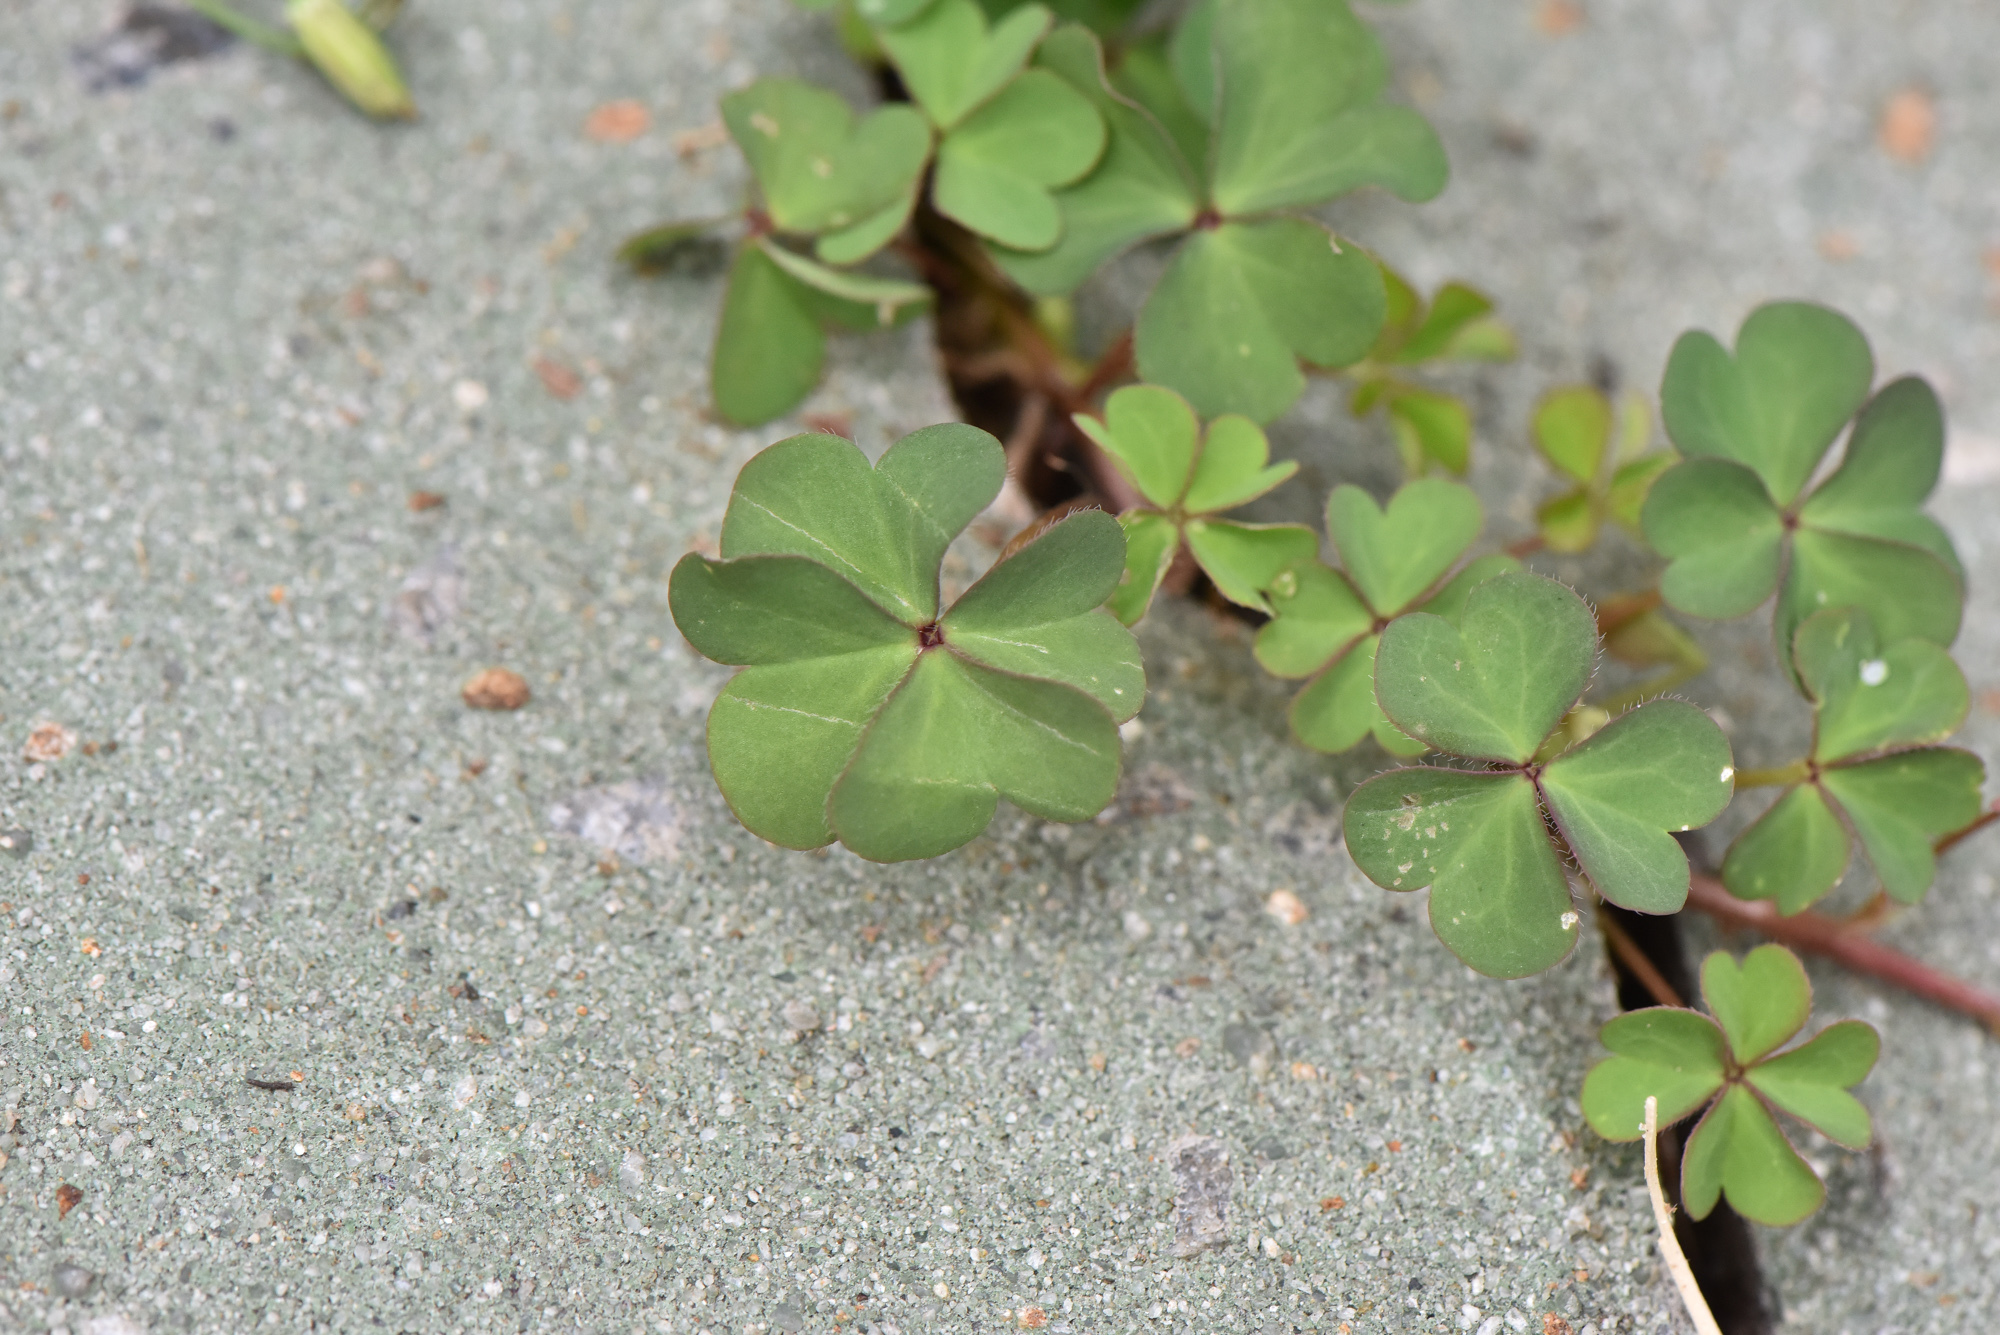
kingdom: Plantae
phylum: Tracheophyta
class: Magnoliopsida
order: Oxalidales
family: Oxalidaceae
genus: Oxalis
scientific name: Oxalis corniculata
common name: Procumbent yellow-sorrel
